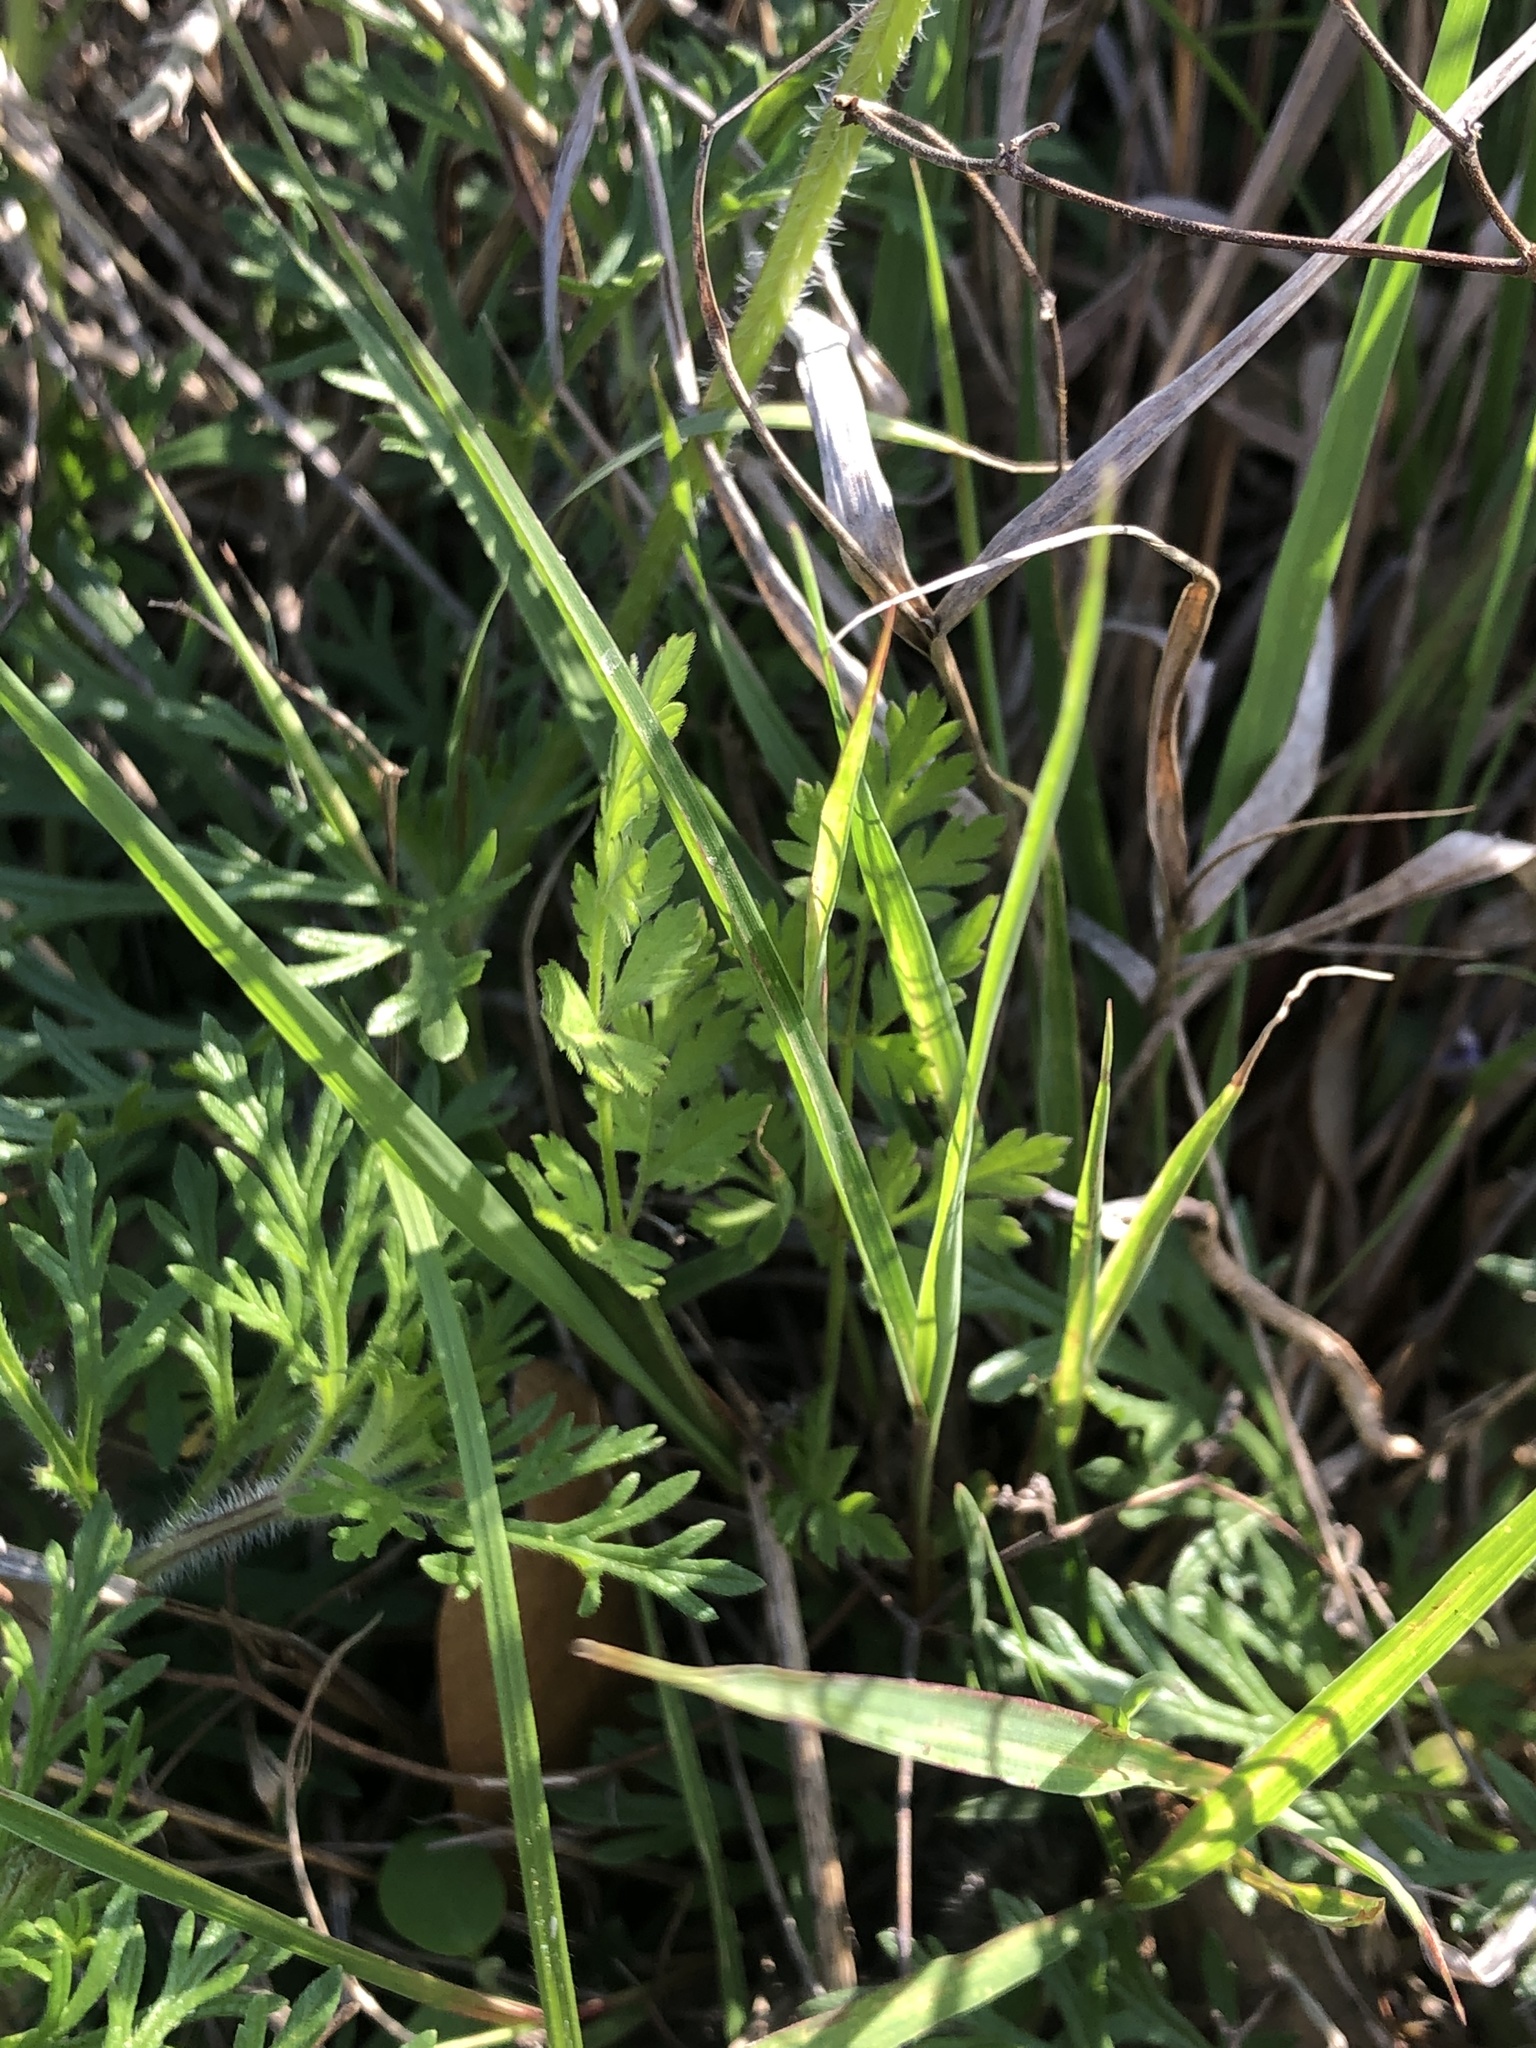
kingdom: Plantae
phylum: Tracheophyta
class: Magnoliopsida
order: Lamiales
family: Verbenaceae
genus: Verbena
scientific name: Verbena bipinnatifida
